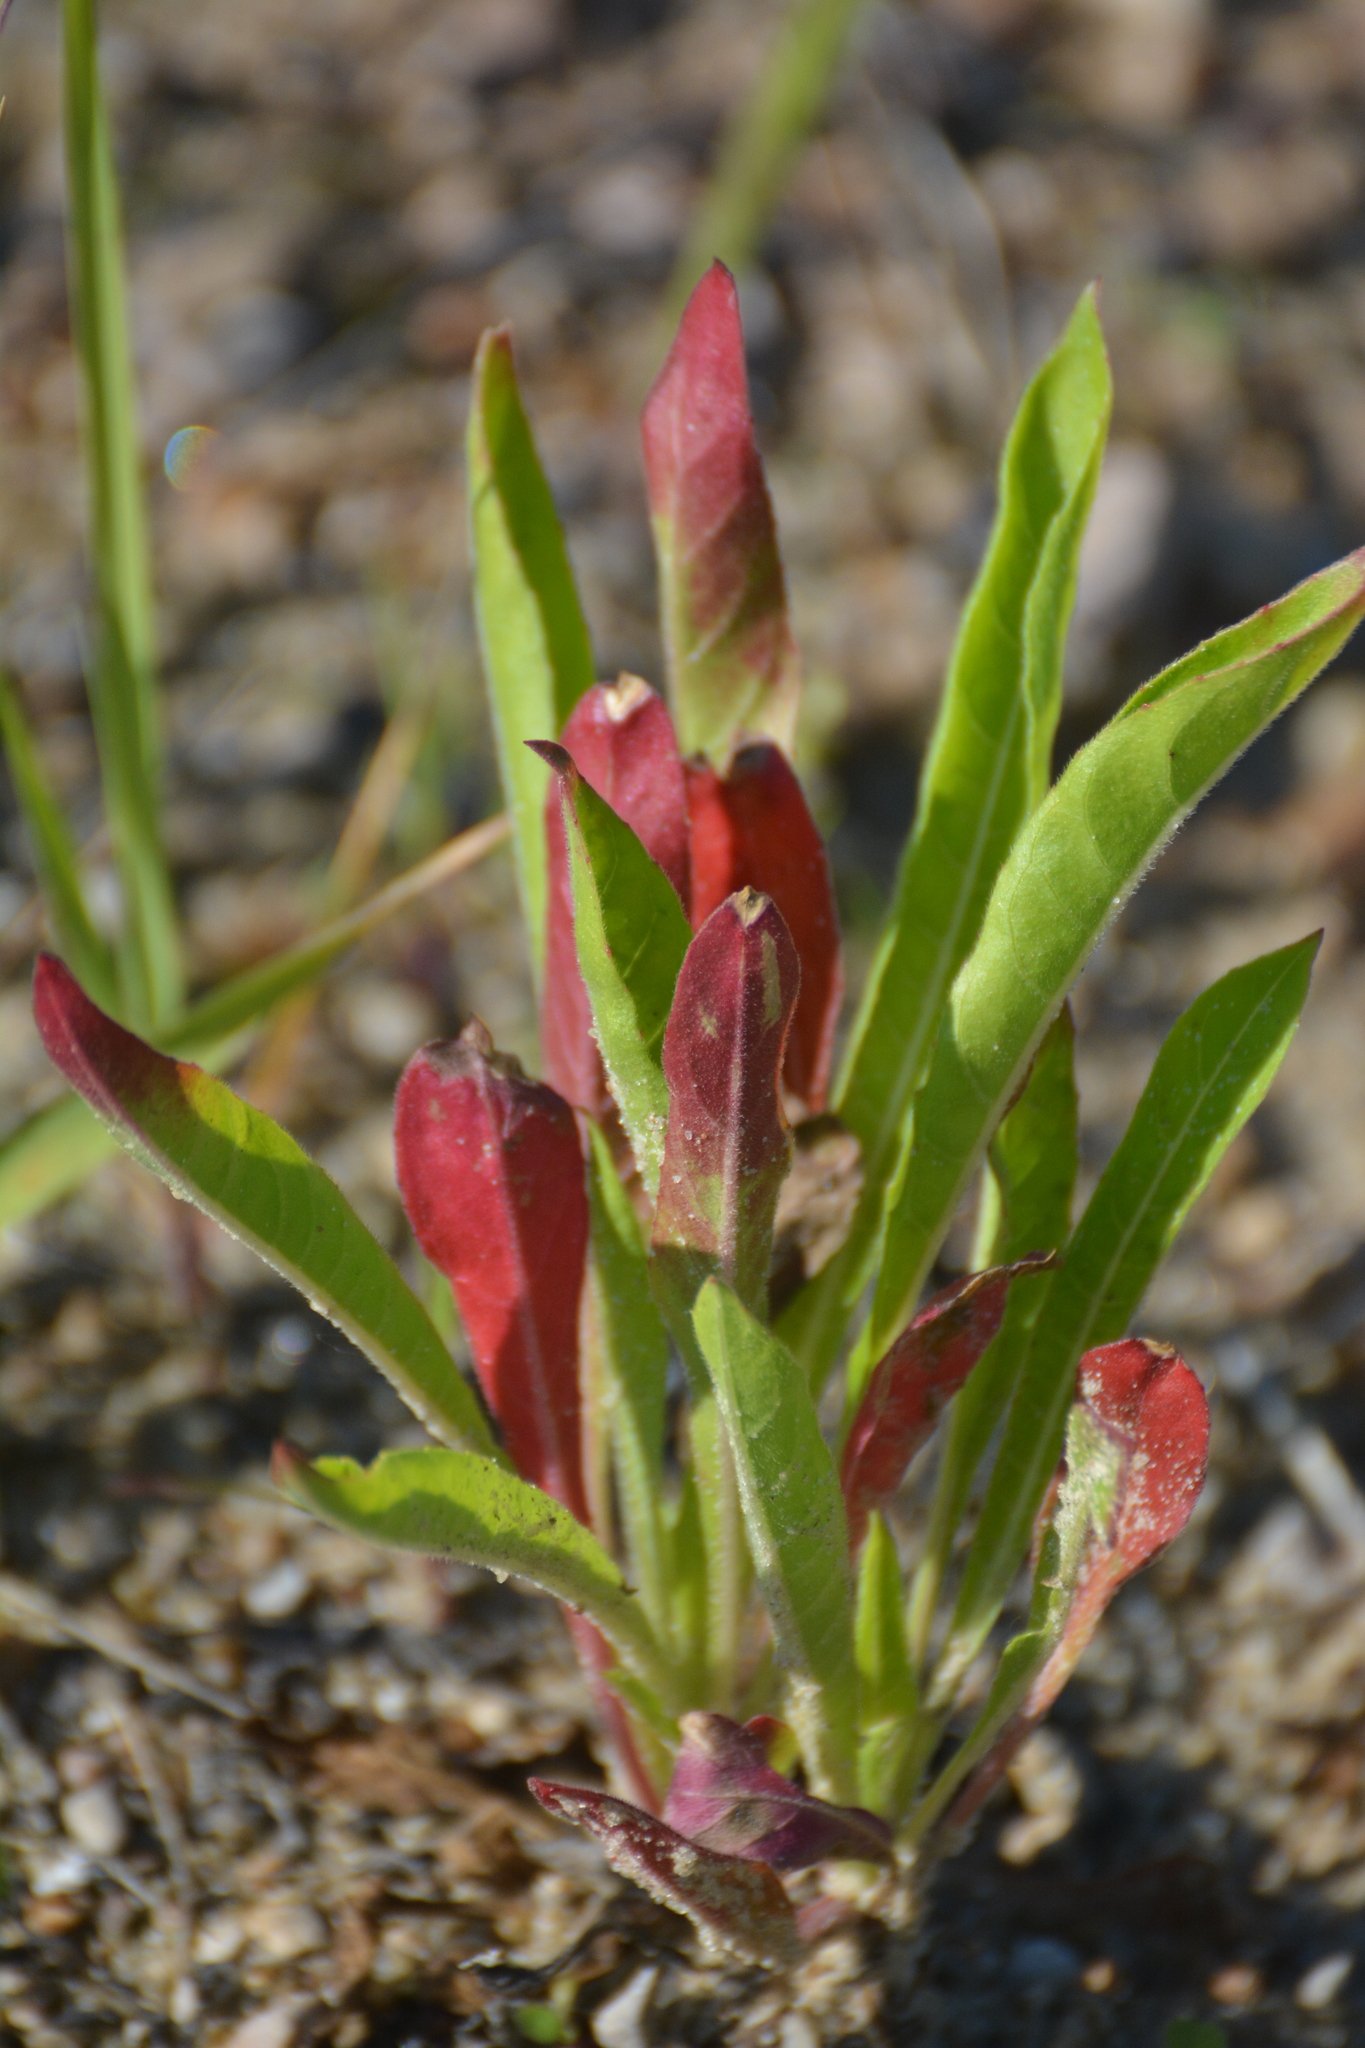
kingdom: Plantae
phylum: Tracheophyta
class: Magnoliopsida
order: Myrtales
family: Onagraceae
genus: Oenothera
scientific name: Oenothera
